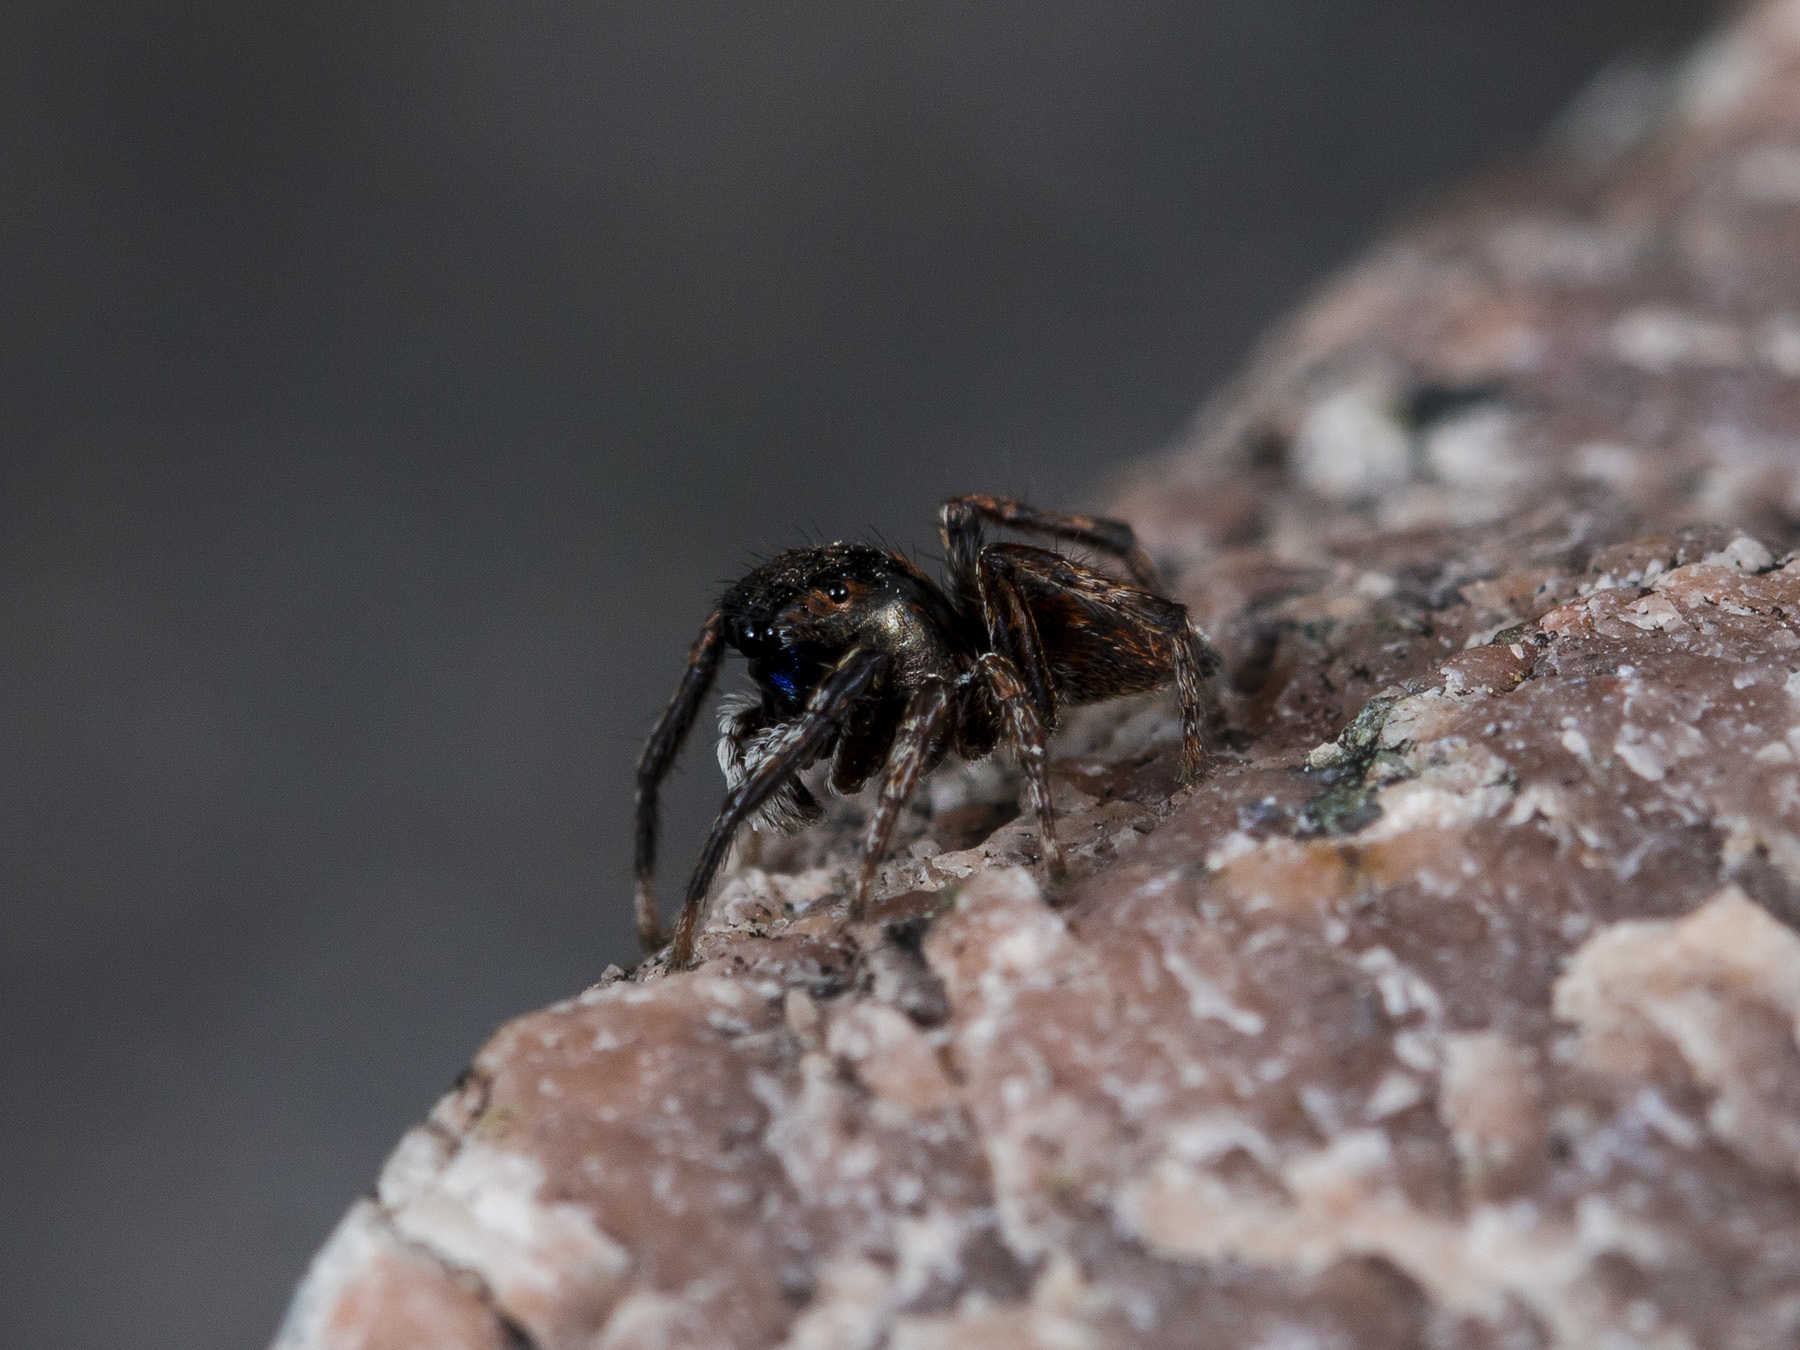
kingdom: Animalia
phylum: Arthropoda
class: Arachnida
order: Araneae
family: Salticidae
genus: Attulus
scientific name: Attulus mirandus
